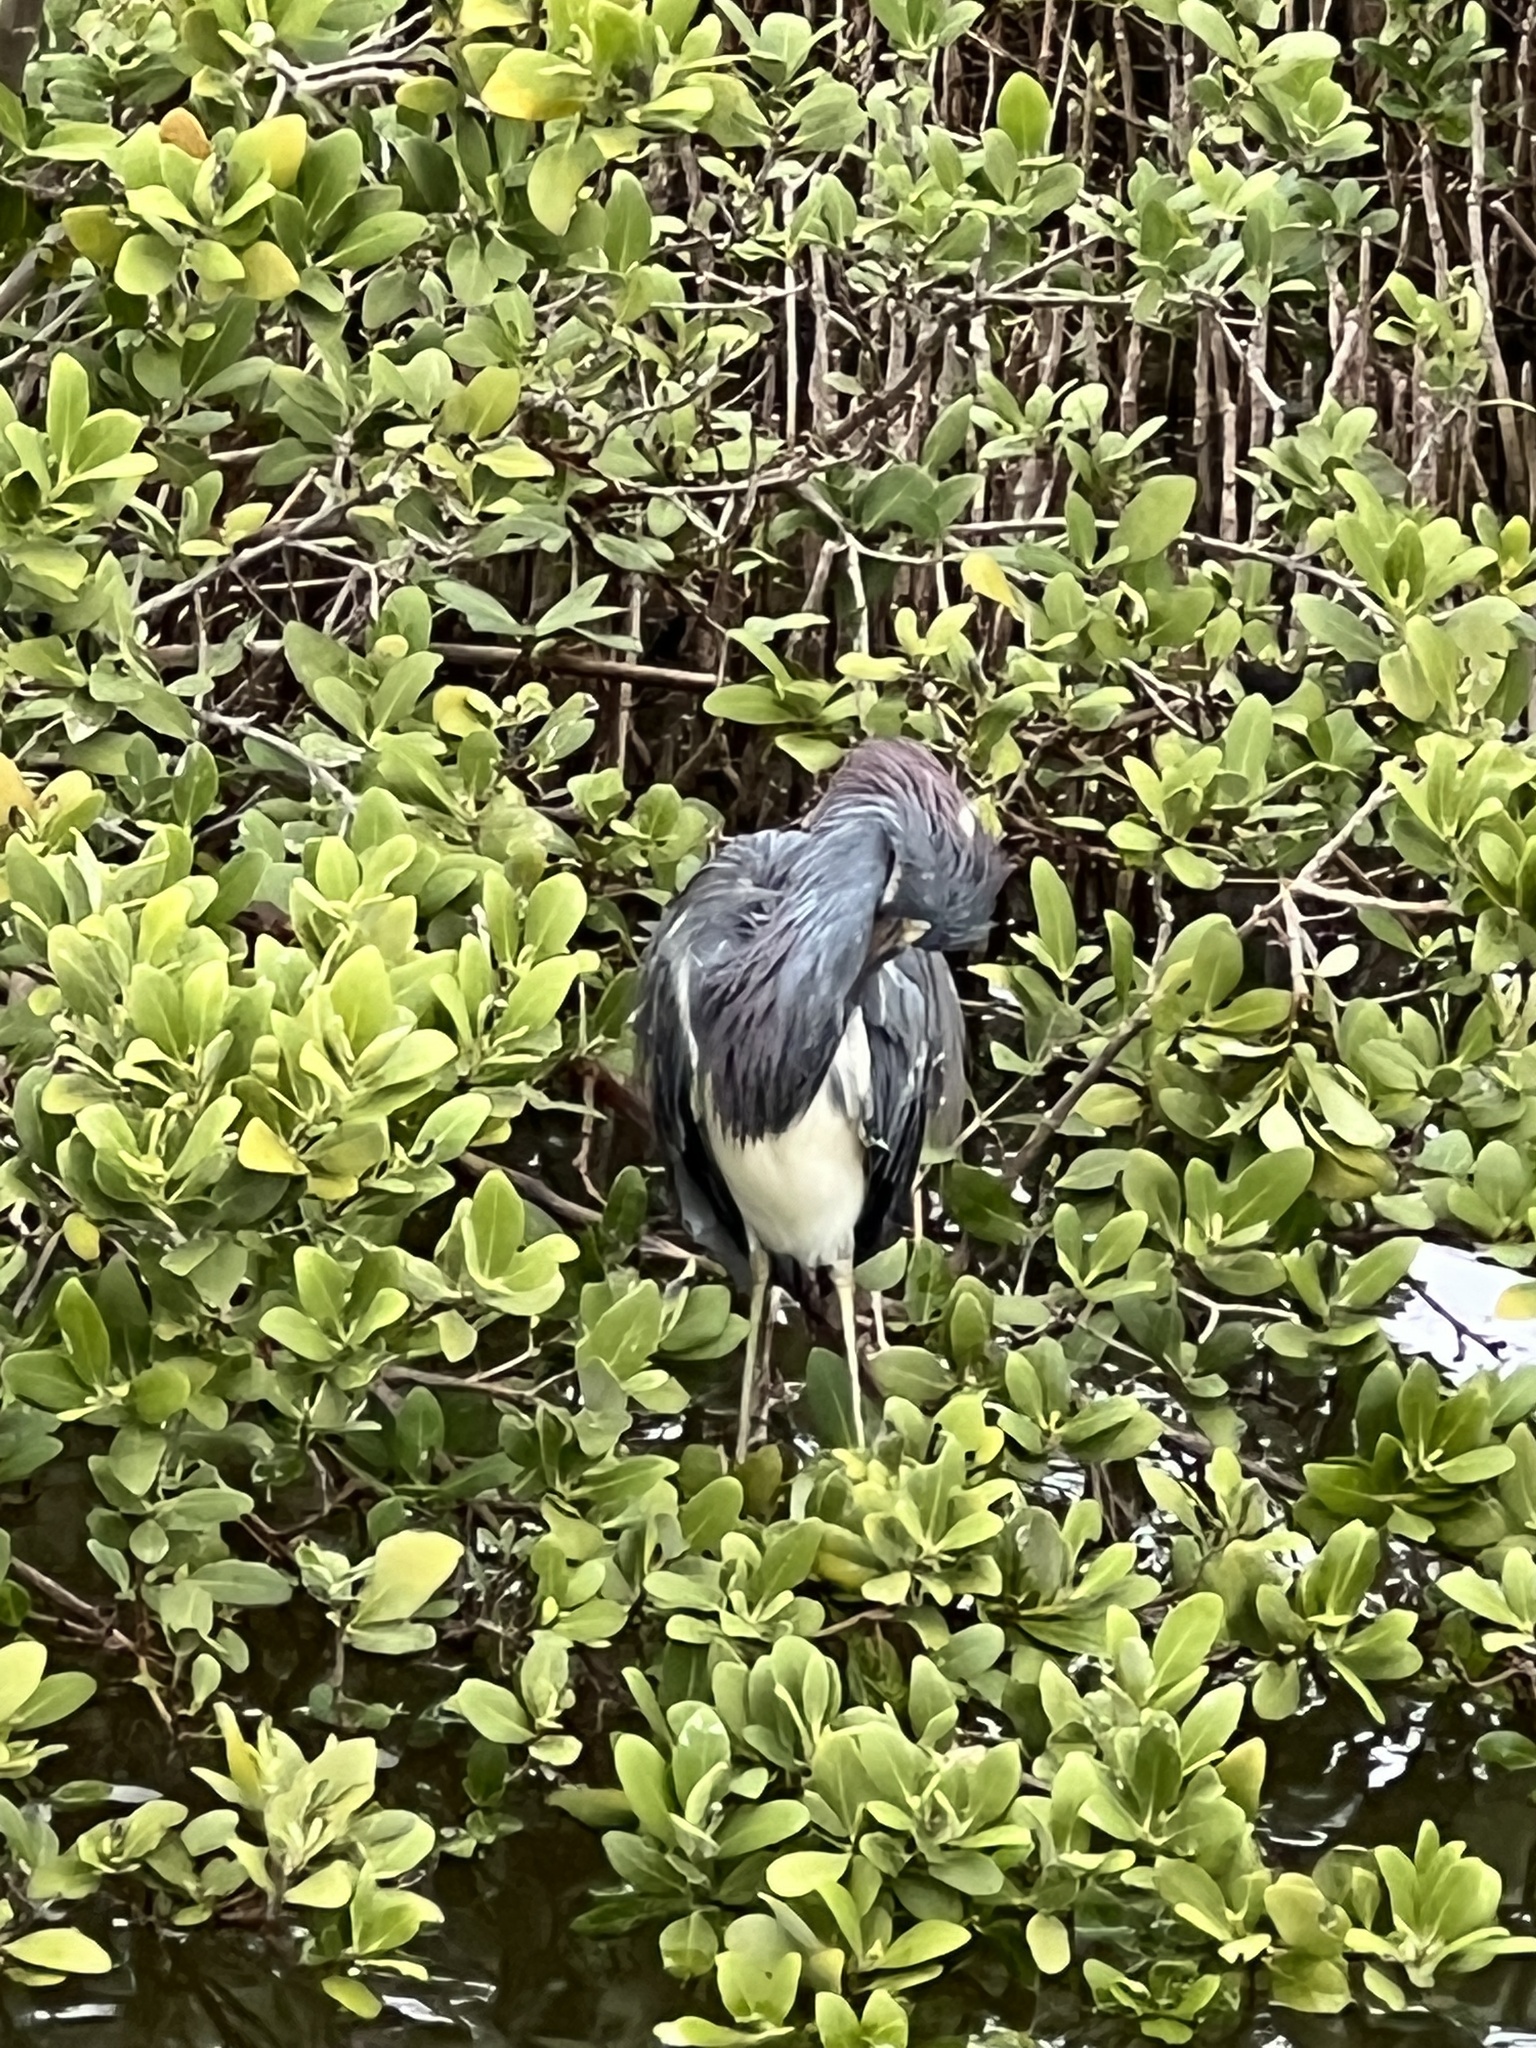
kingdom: Animalia
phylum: Chordata
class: Aves
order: Pelecaniformes
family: Ardeidae
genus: Egretta
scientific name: Egretta tricolor
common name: Tricolored heron
